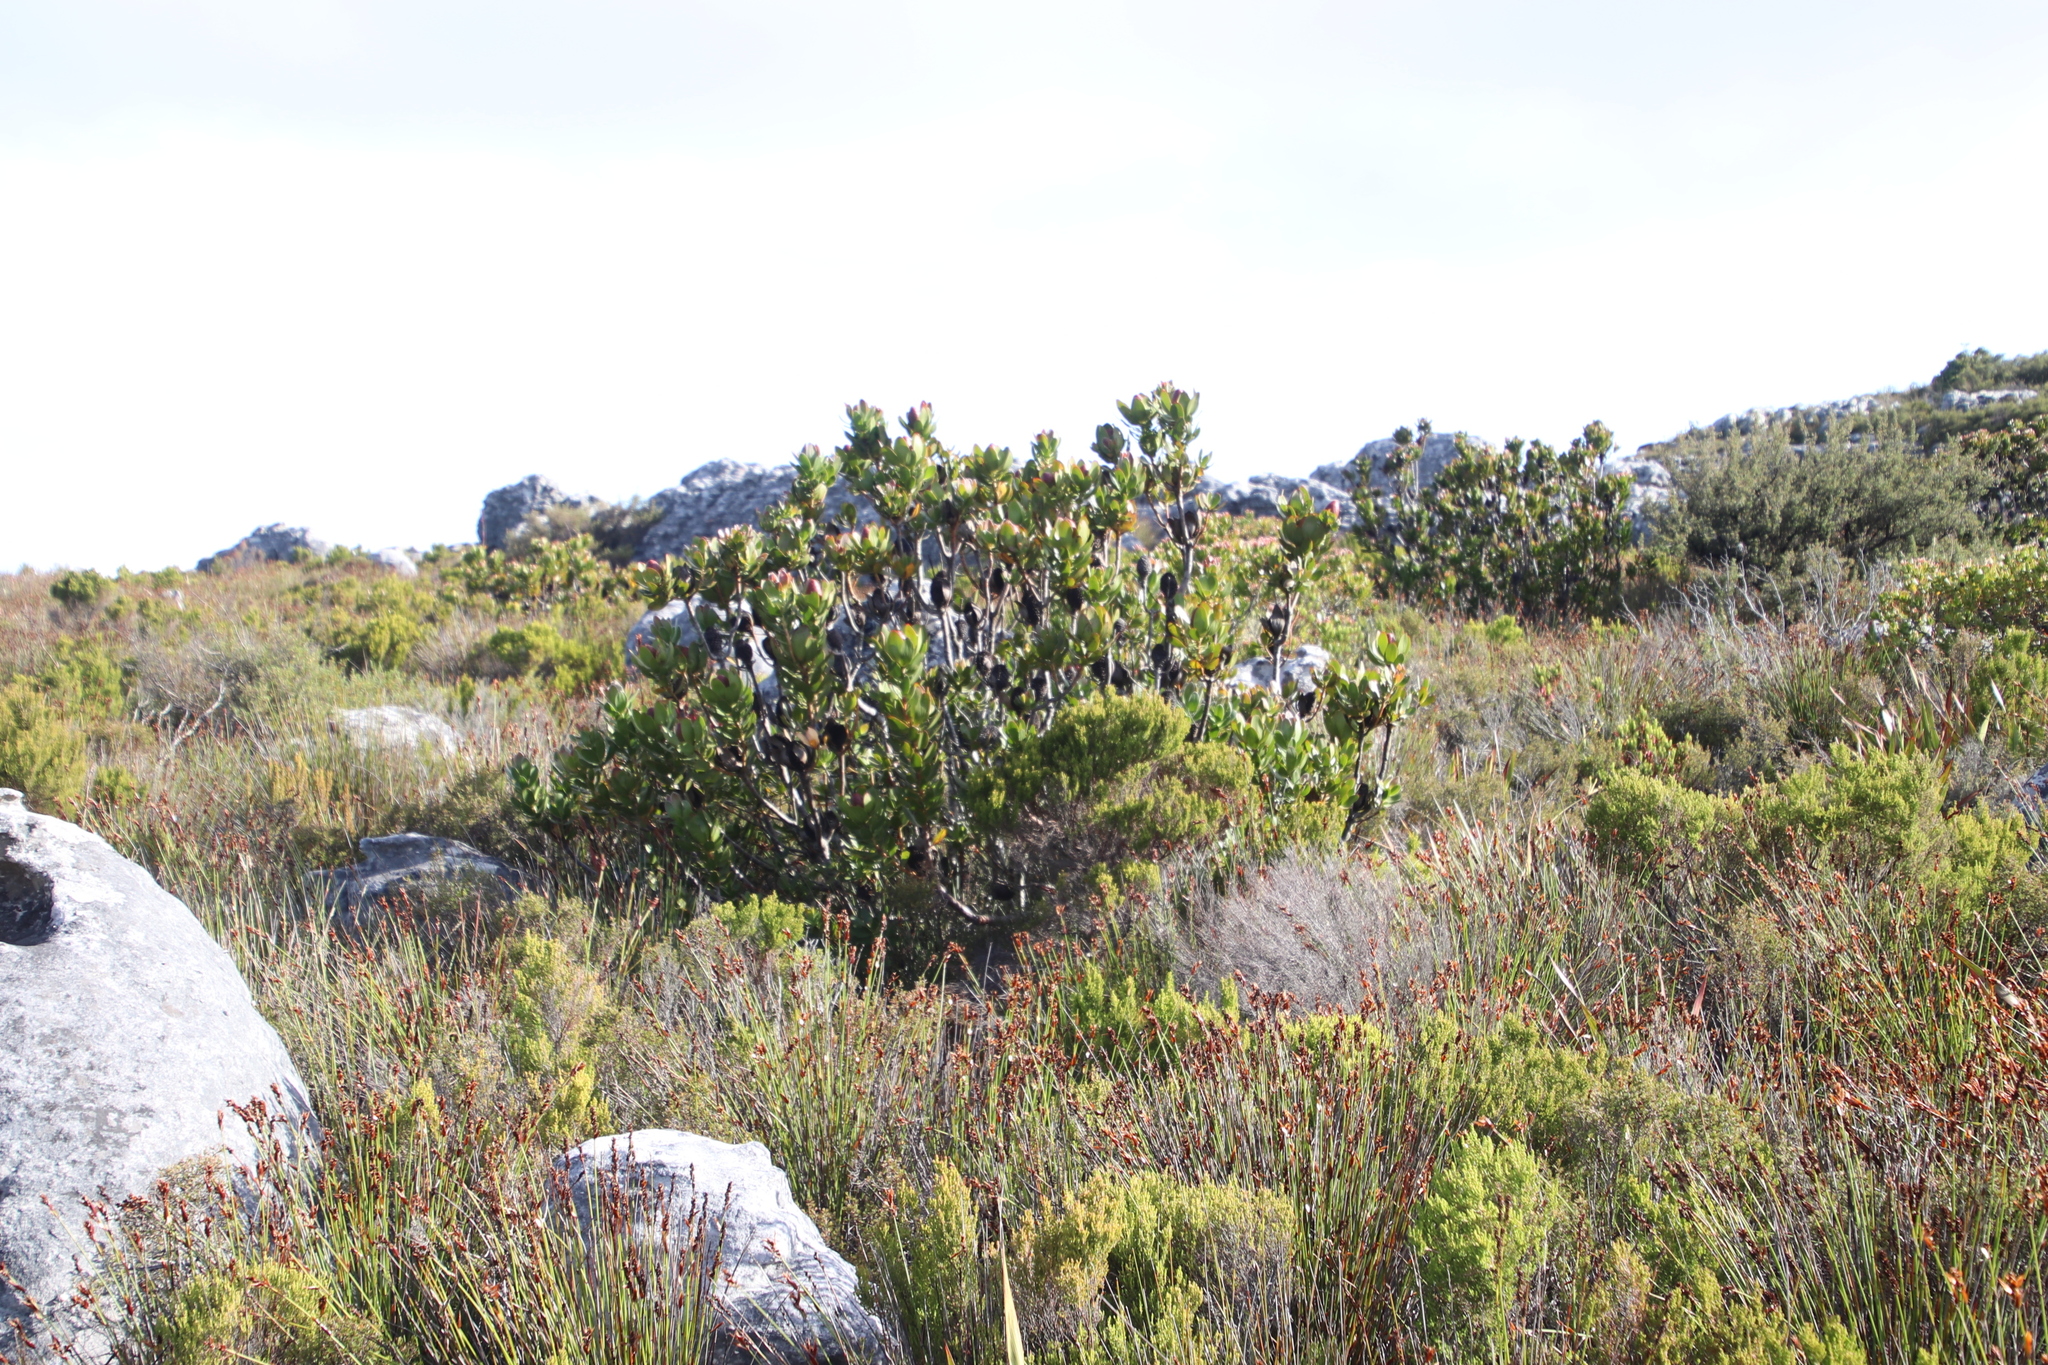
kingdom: Plantae
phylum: Tracheophyta
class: Magnoliopsida
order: Proteales
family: Proteaceae
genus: Leucadendron
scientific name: Leucadendron strobilinum
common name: Mountain rose
